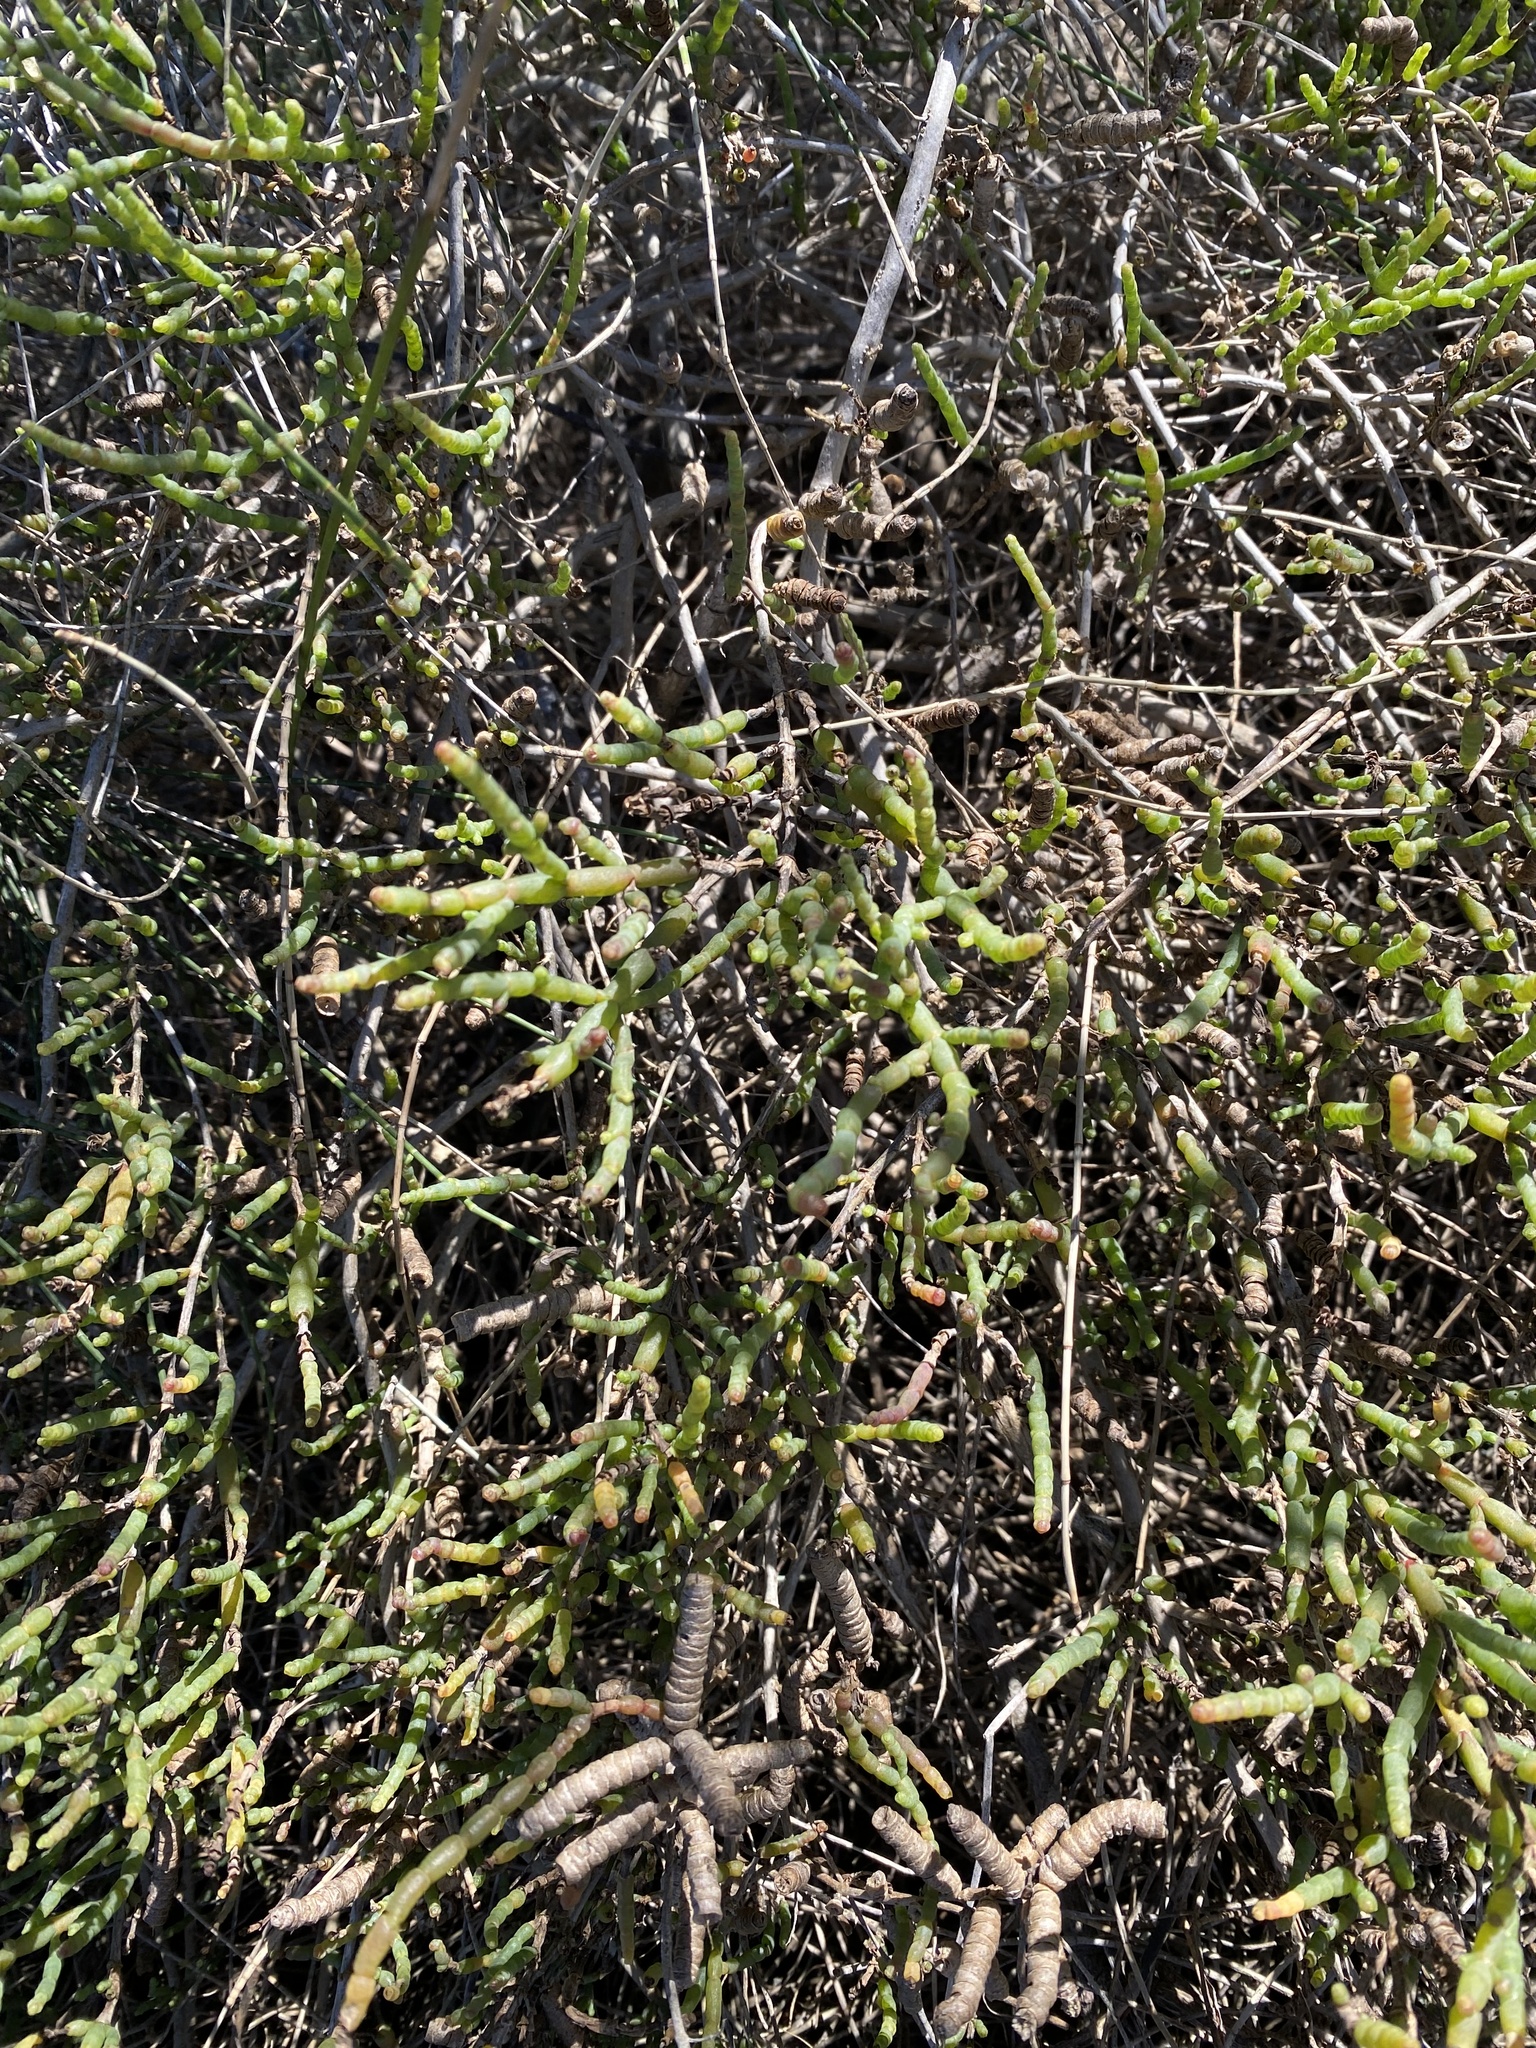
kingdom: Plantae
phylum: Tracheophyta
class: Magnoliopsida
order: Caryophyllales
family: Amaranthaceae
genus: Salicornia
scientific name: Salicornia quinqueflora
